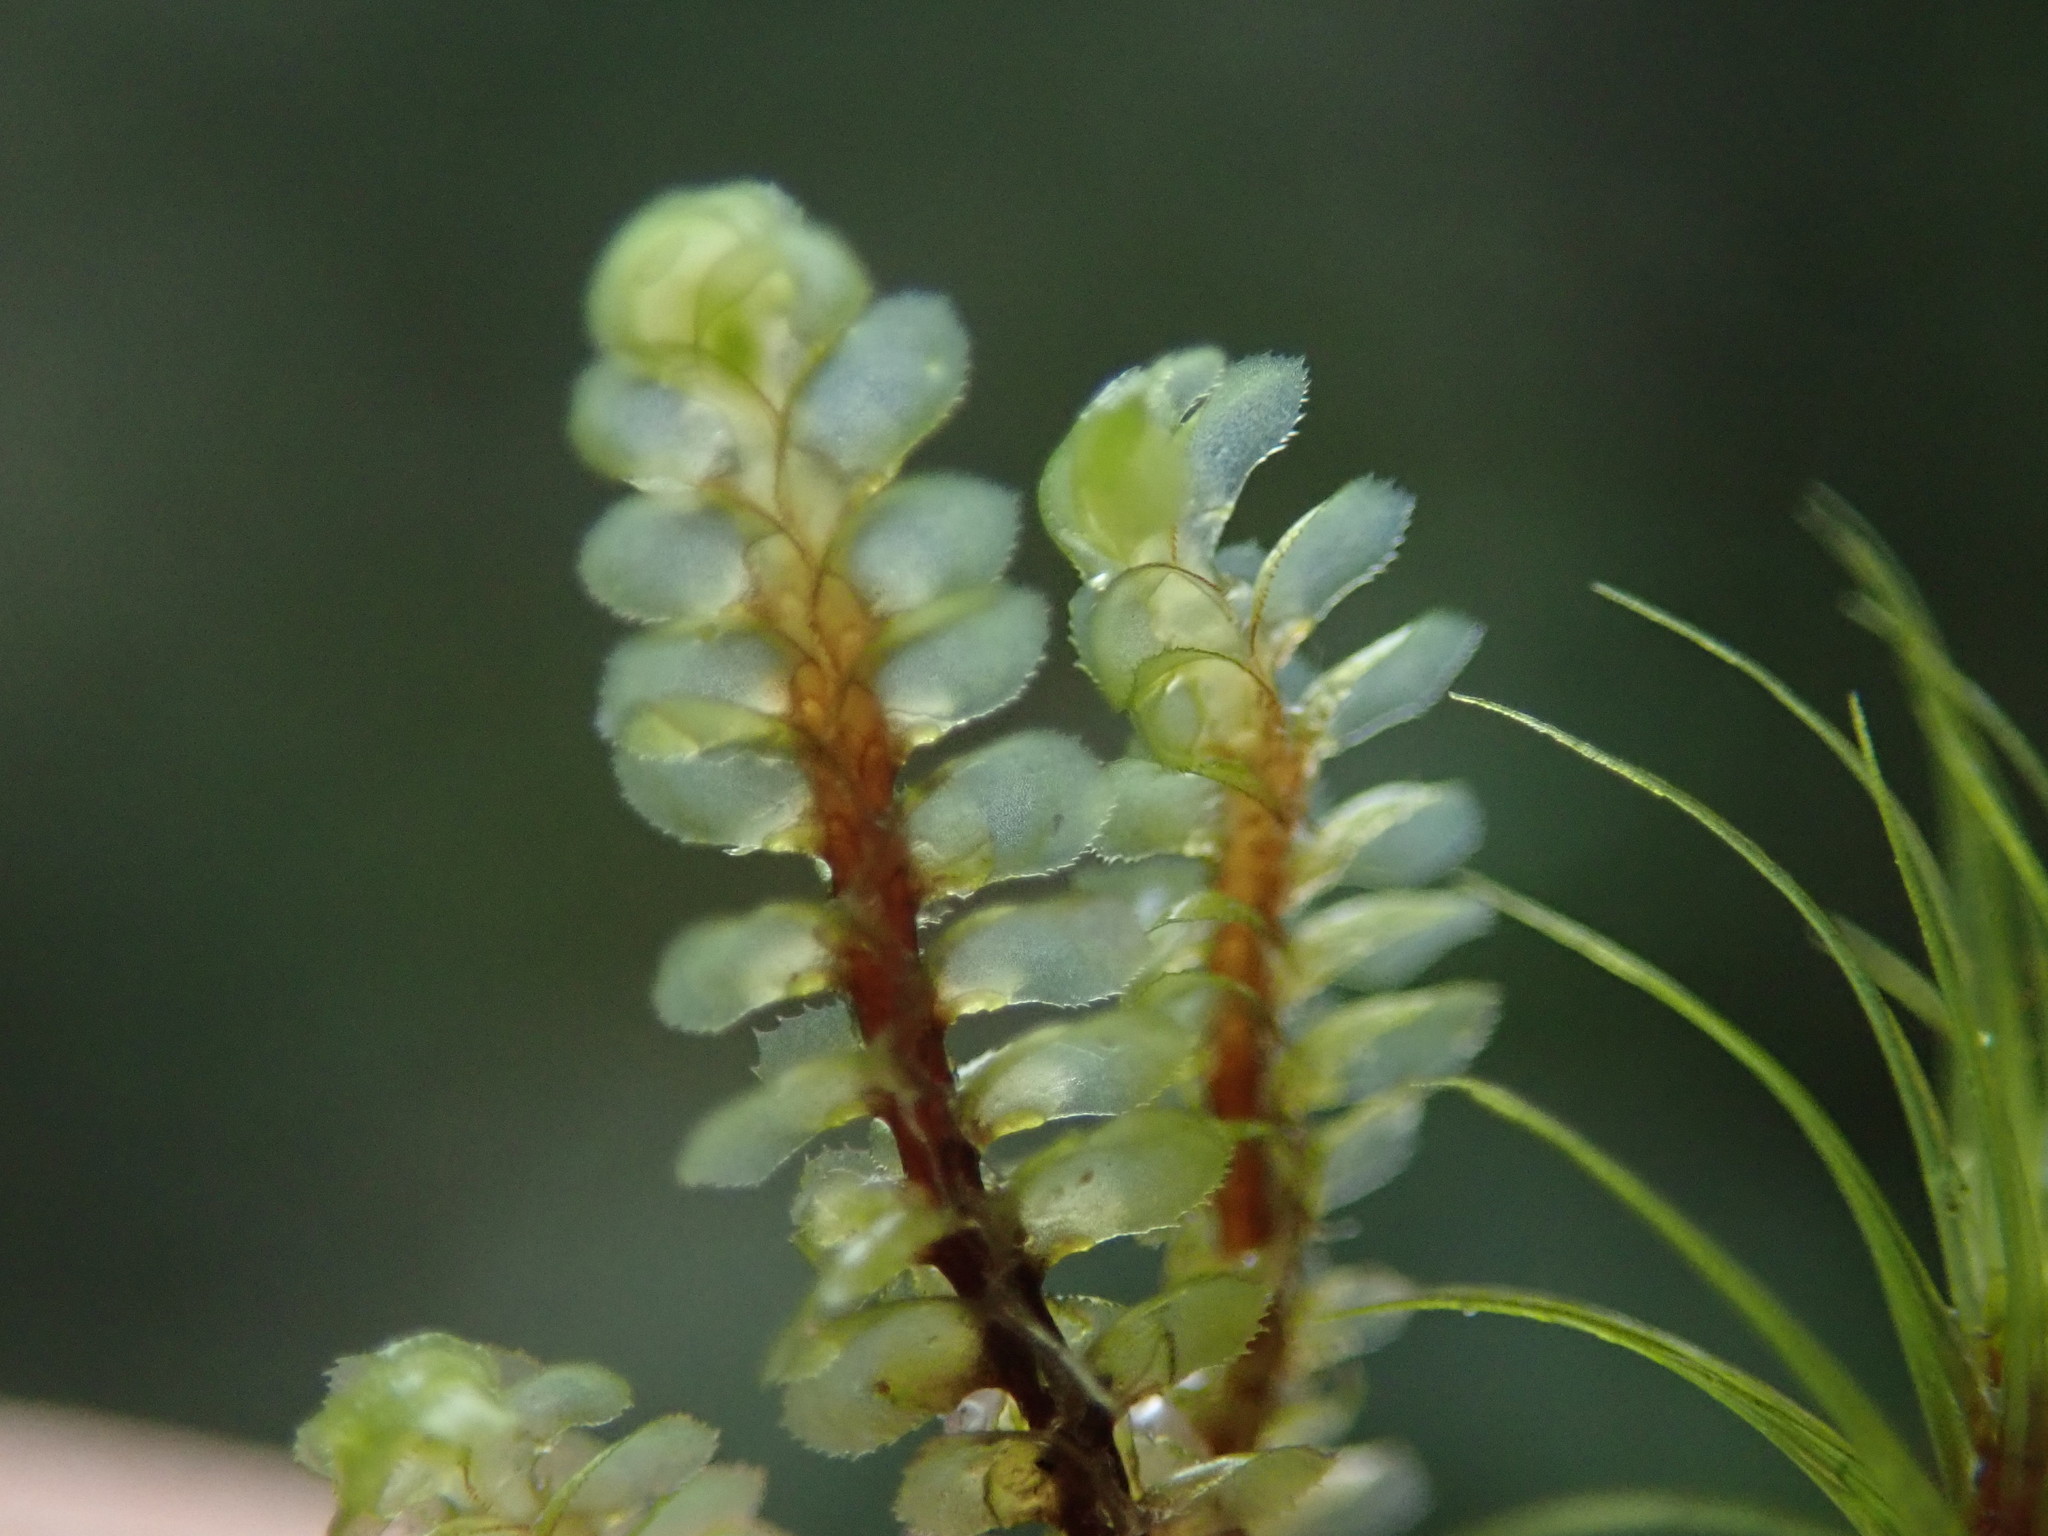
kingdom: Plantae
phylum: Marchantiophyta
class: Jungermanniopsida
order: Jungermanniales
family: Scapaniaceae
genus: Scapania
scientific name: Scapania bolanderi
